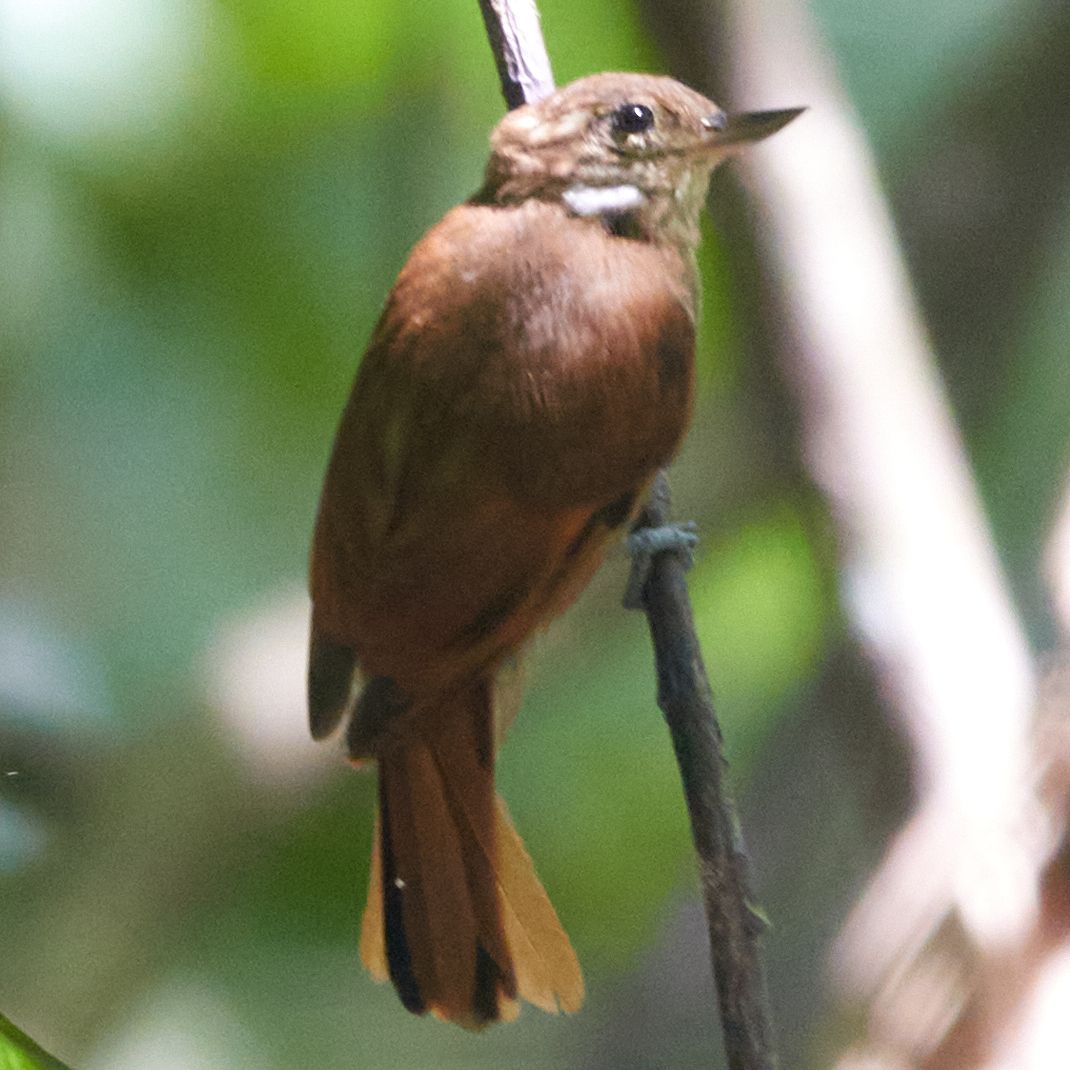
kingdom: Animalia
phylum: Chordata
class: Aves
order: Passeriformes
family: Furnariidae
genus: Xenops
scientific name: Xenops minutus
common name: Plain xenops
